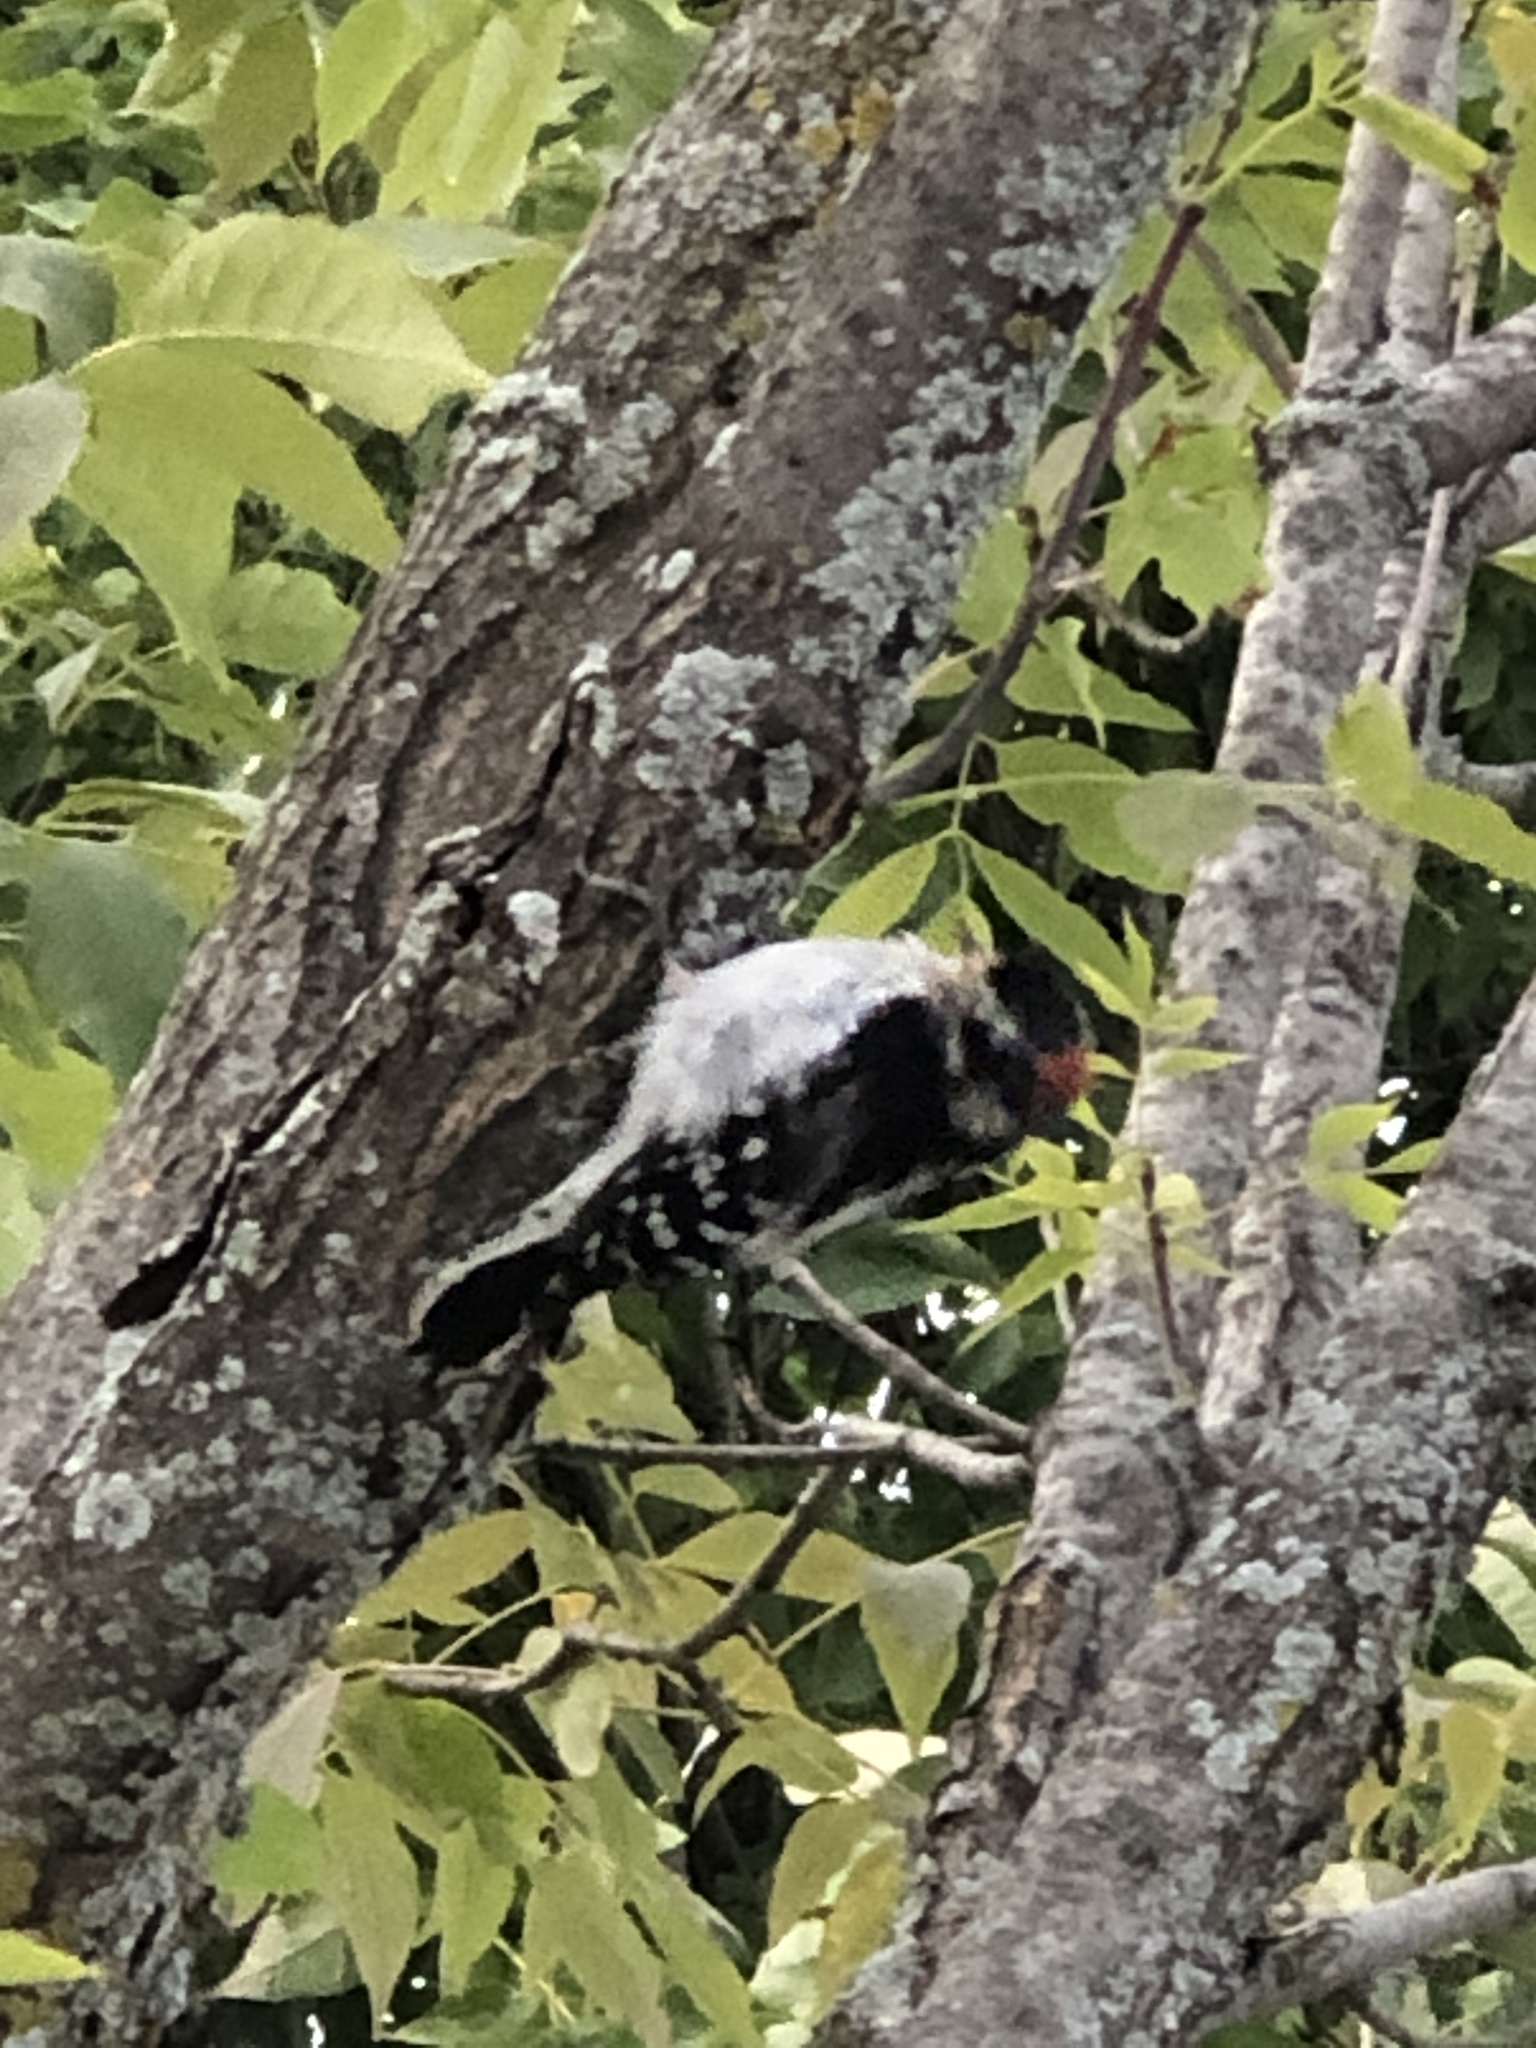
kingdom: Animalia
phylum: Chordata
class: Aves
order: Piciformes
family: Picidae
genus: Dryobates
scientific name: Dryobates pubescens
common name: Downy woodpecker
